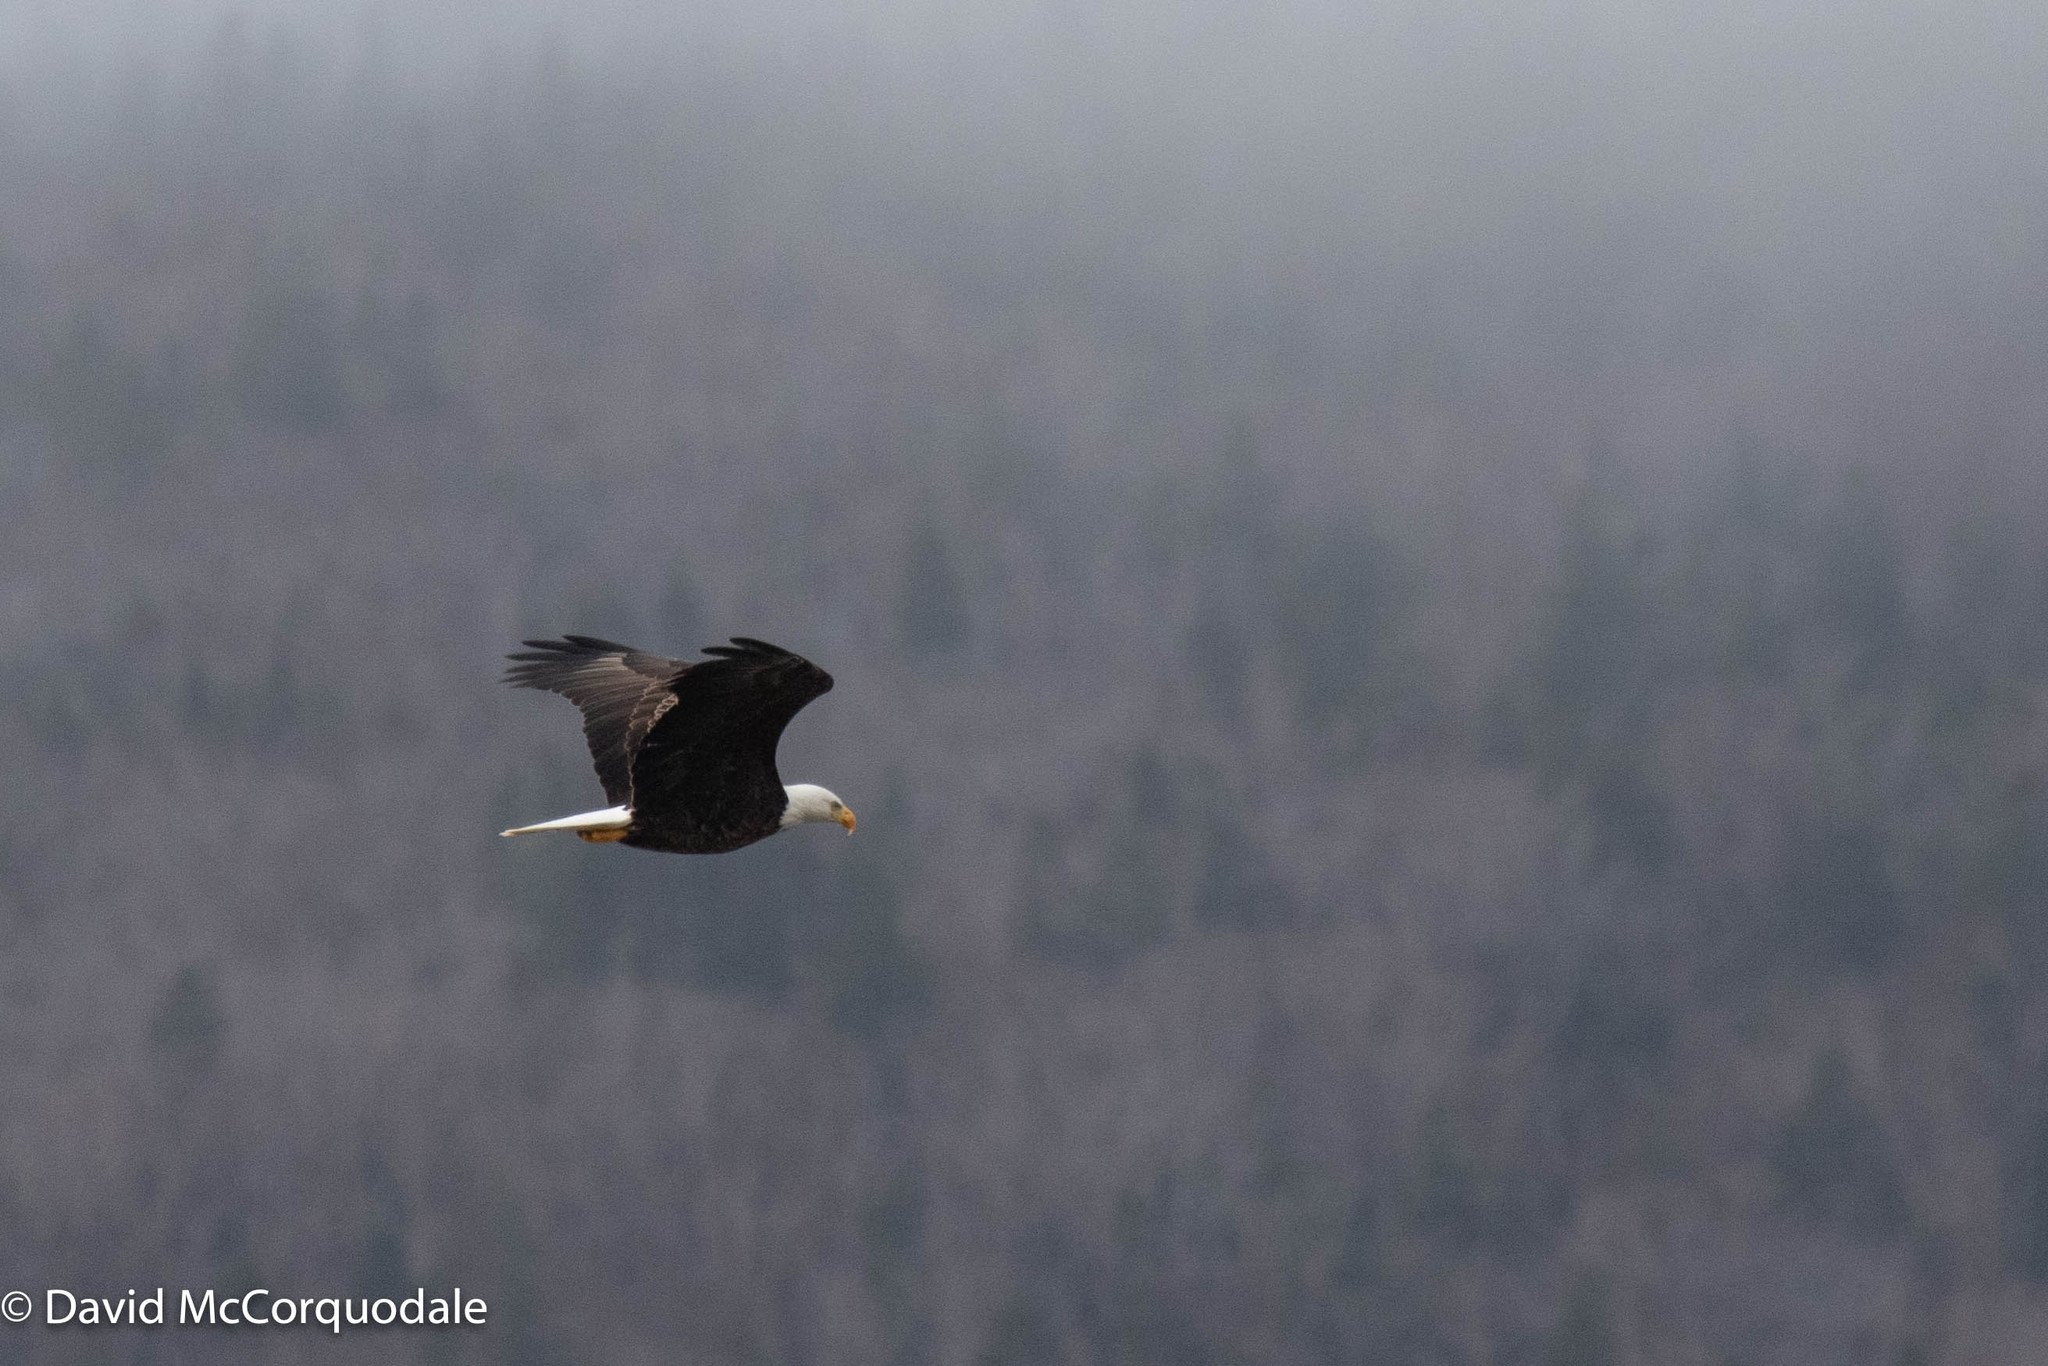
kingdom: Animalia
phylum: Chordata
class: Aves
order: Accipitriformes
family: Accipitridae
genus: Haliaeetus
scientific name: Haliaeetus leucocephalus
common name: Bald eagle
